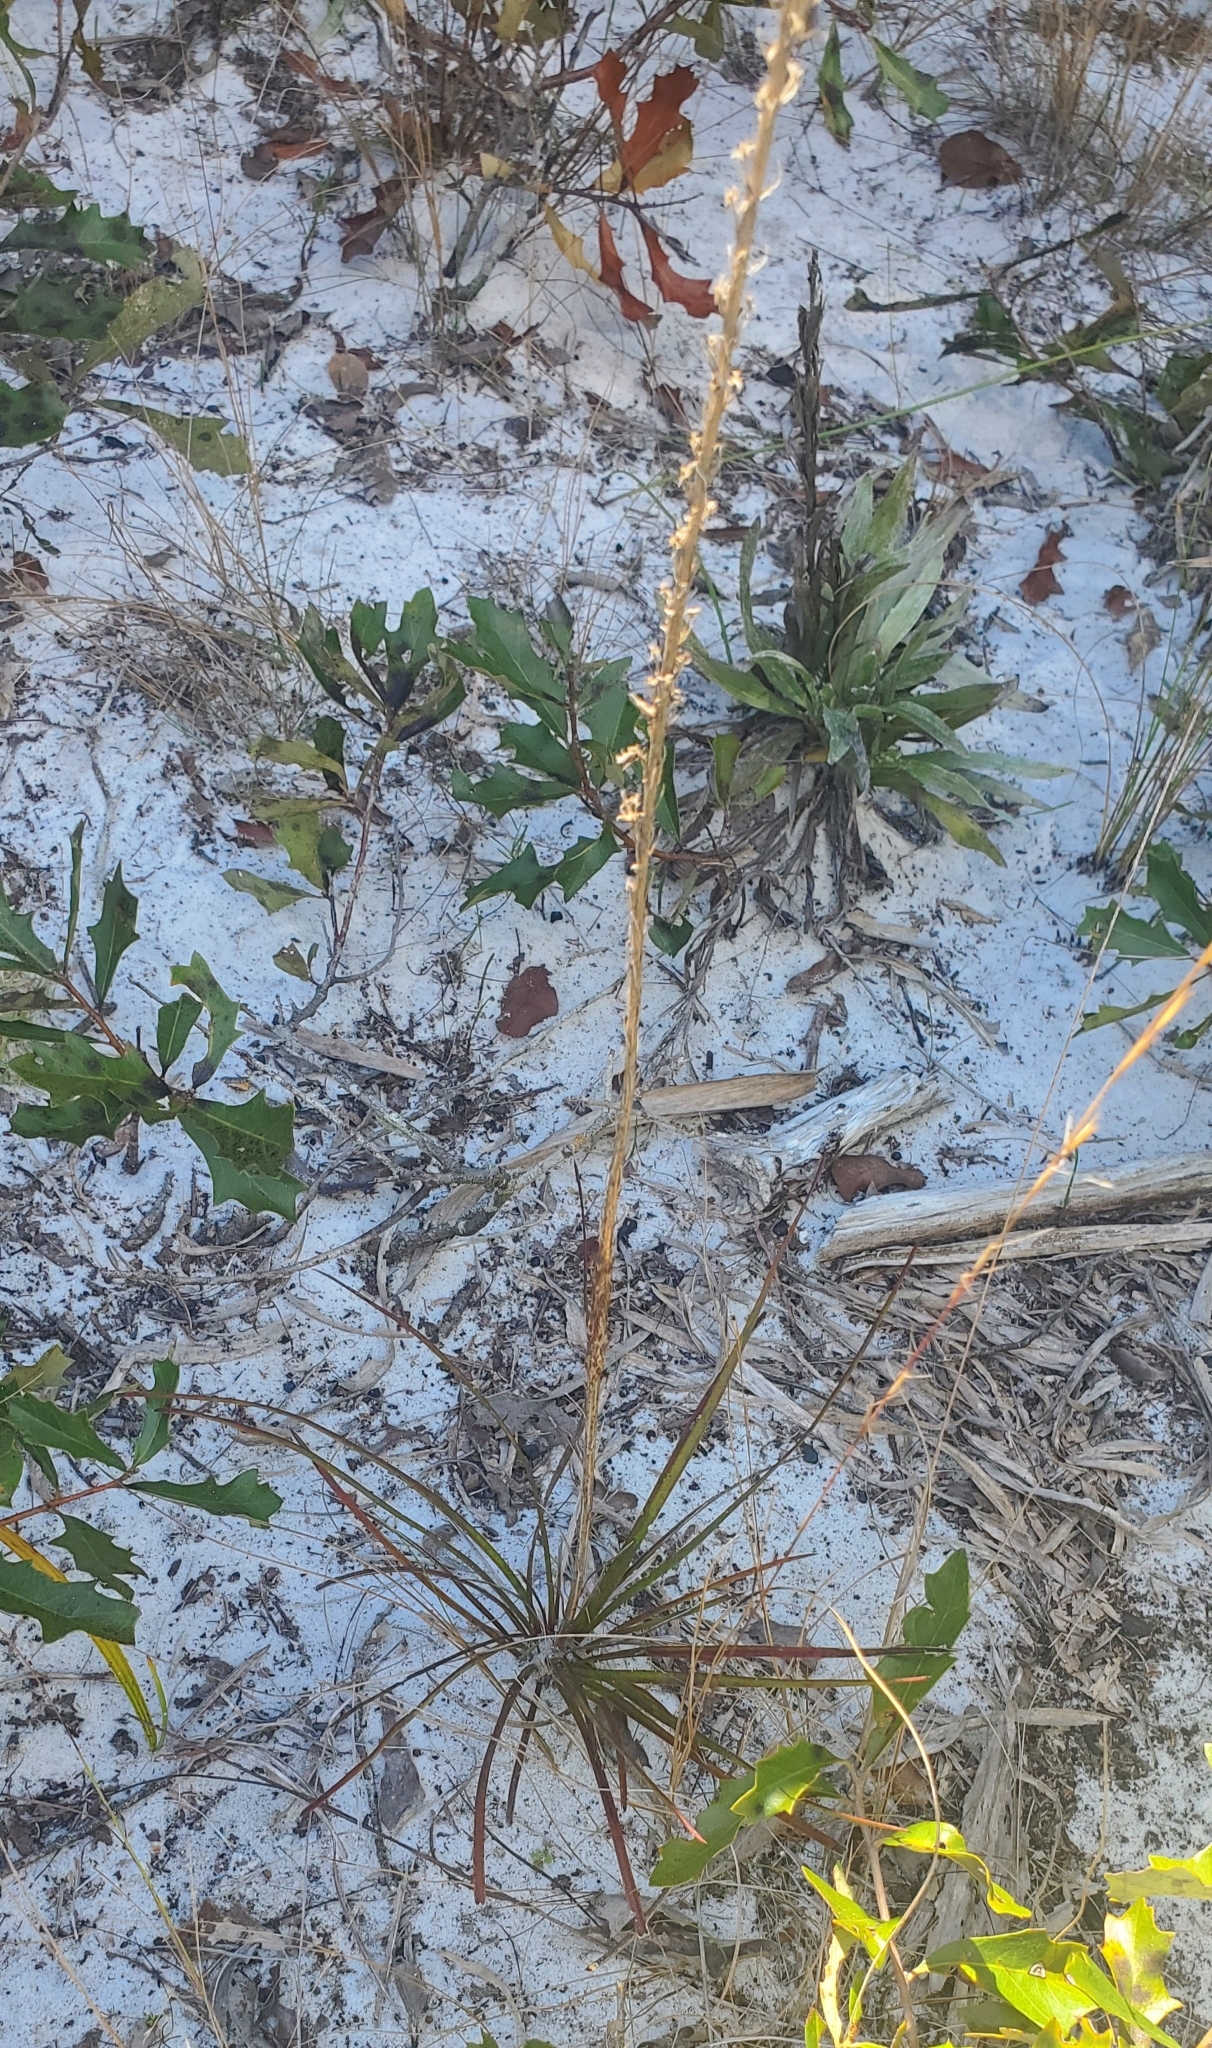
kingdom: Plantae
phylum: Tracheophyta
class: Magnoliopsida
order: Asterales
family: Asteraceae
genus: Liatris
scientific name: Liatris laevigata
